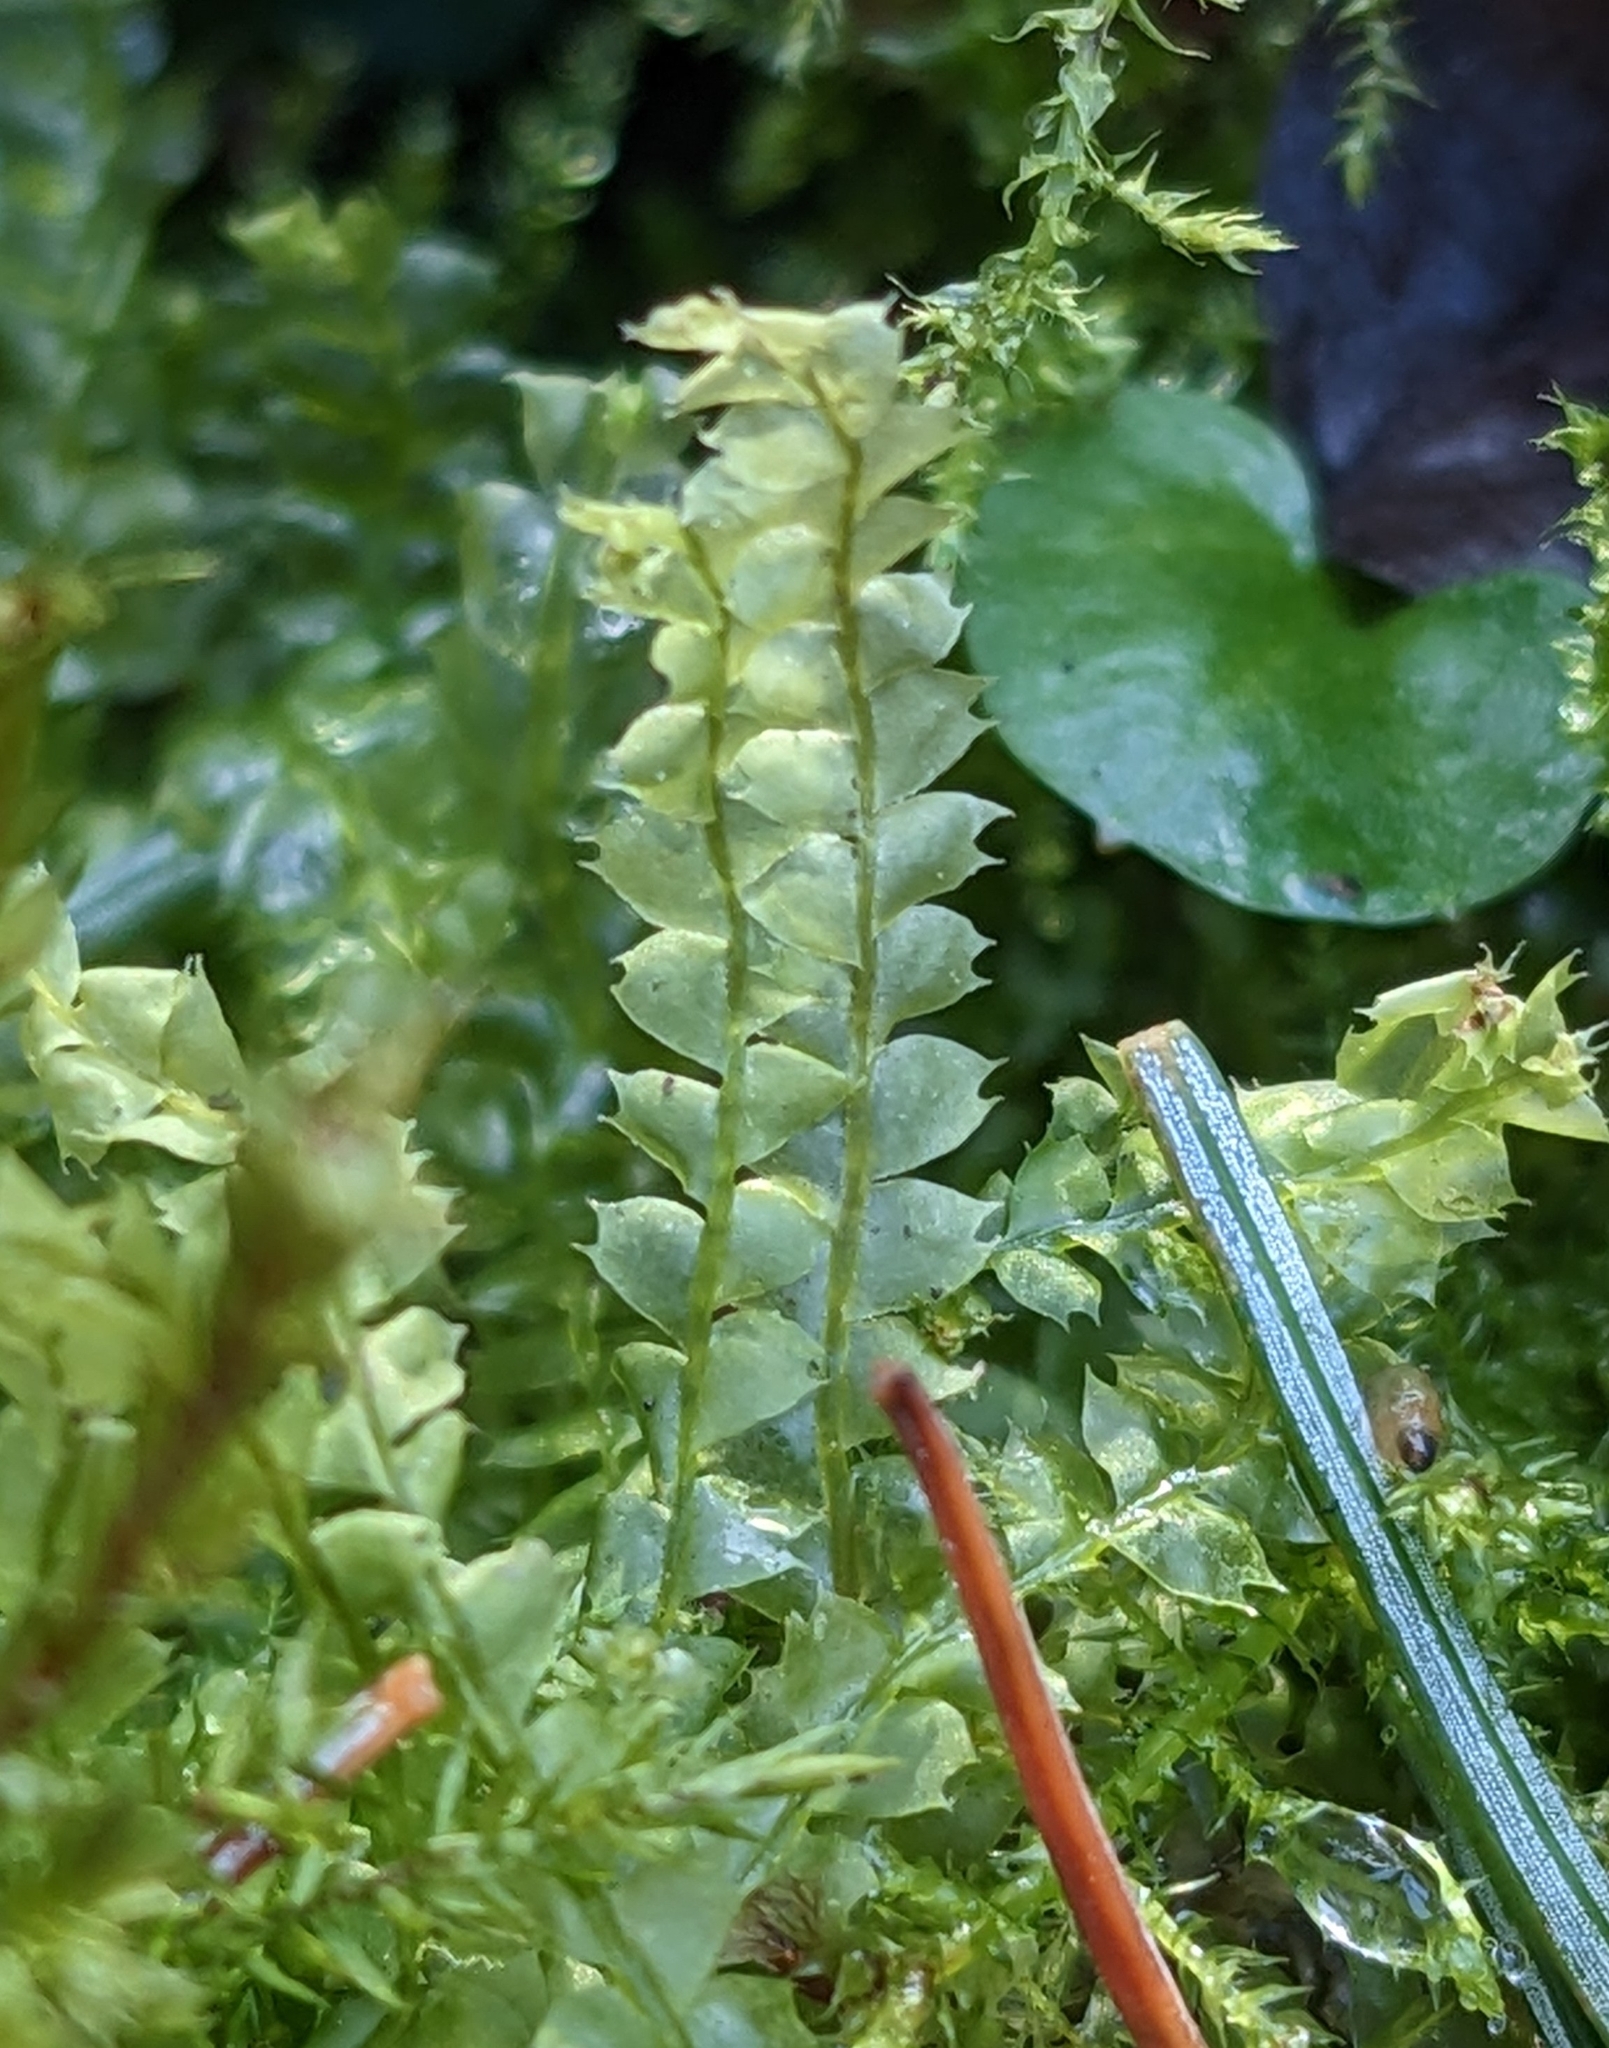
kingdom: Plantae
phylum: Marchantiophyta
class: Jungermanniopsida
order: Jungermanniales
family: Lophocoleaceae
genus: Lophocolea
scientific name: Lophocolea bidentata
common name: Bifid crestwort
